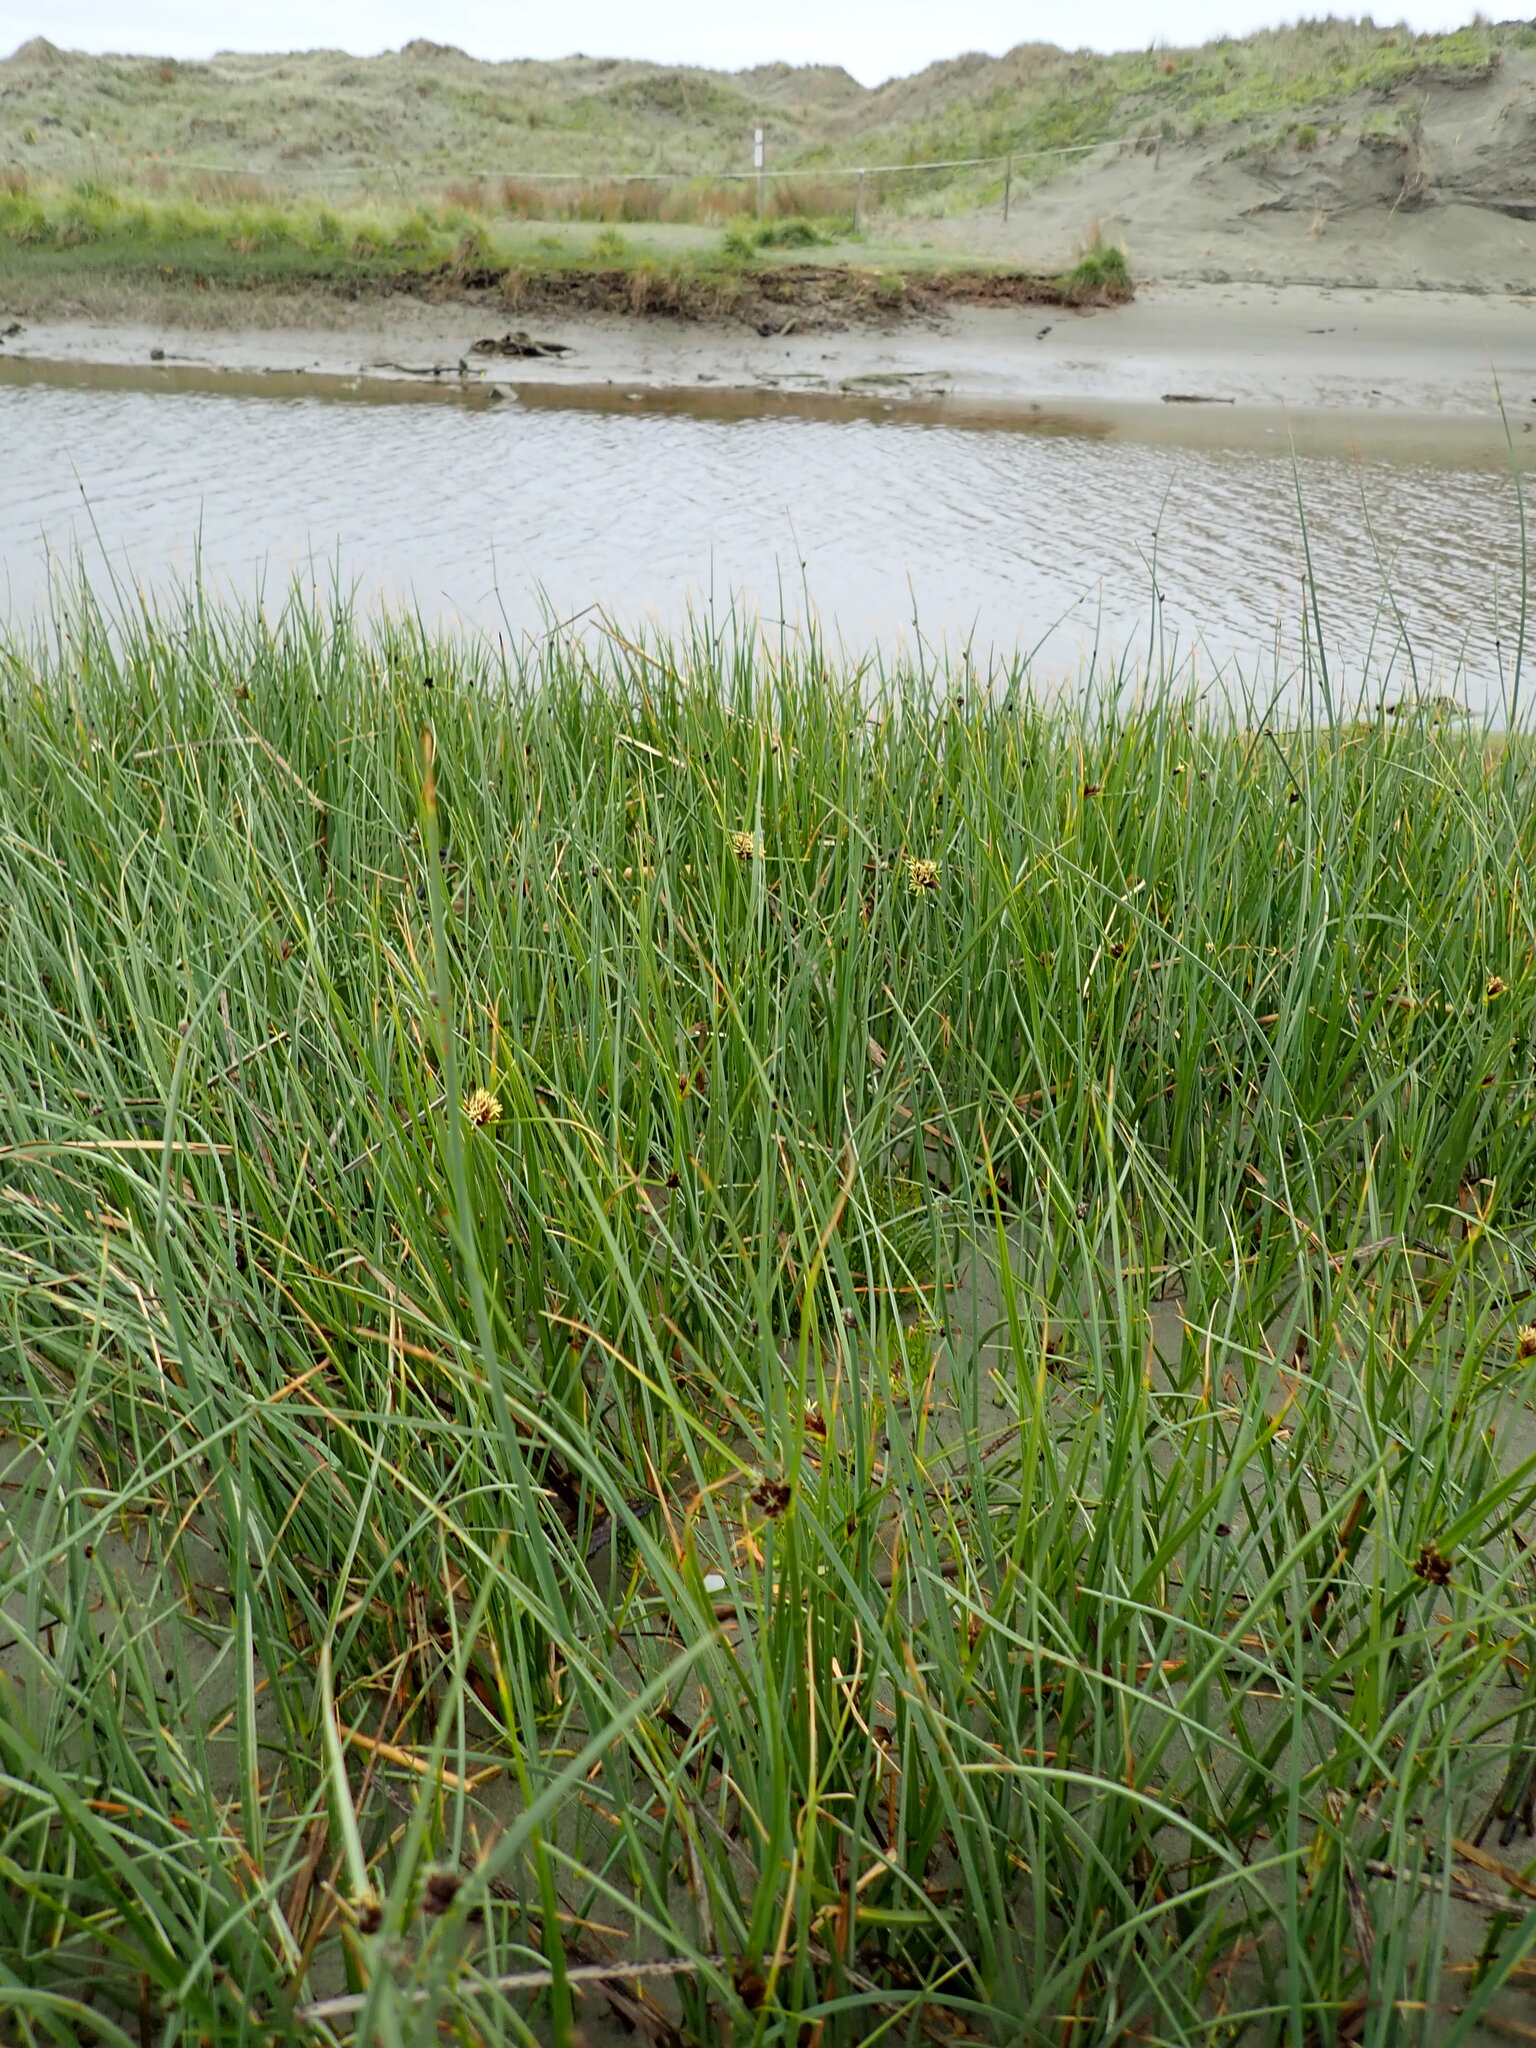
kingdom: Plantae
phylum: Tracheophyta
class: Liliopsida
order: Poales
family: Cyperaceae
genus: Bolboschoenus
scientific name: Bolboschoenus caldwellii
